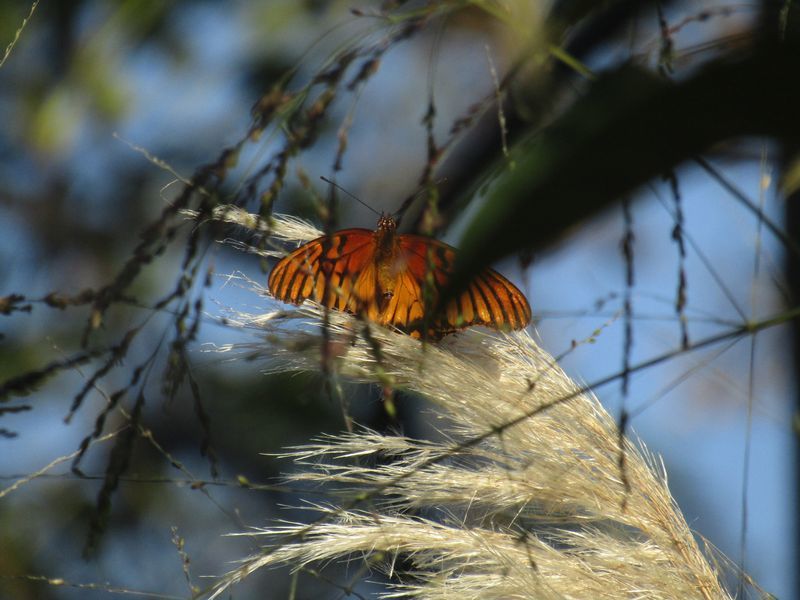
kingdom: Animalia
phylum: Arthropoda
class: Insecta
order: Lepidoptera
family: Nymphalidae
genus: Dione
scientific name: Dione moneta
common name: Mexican silverspot
